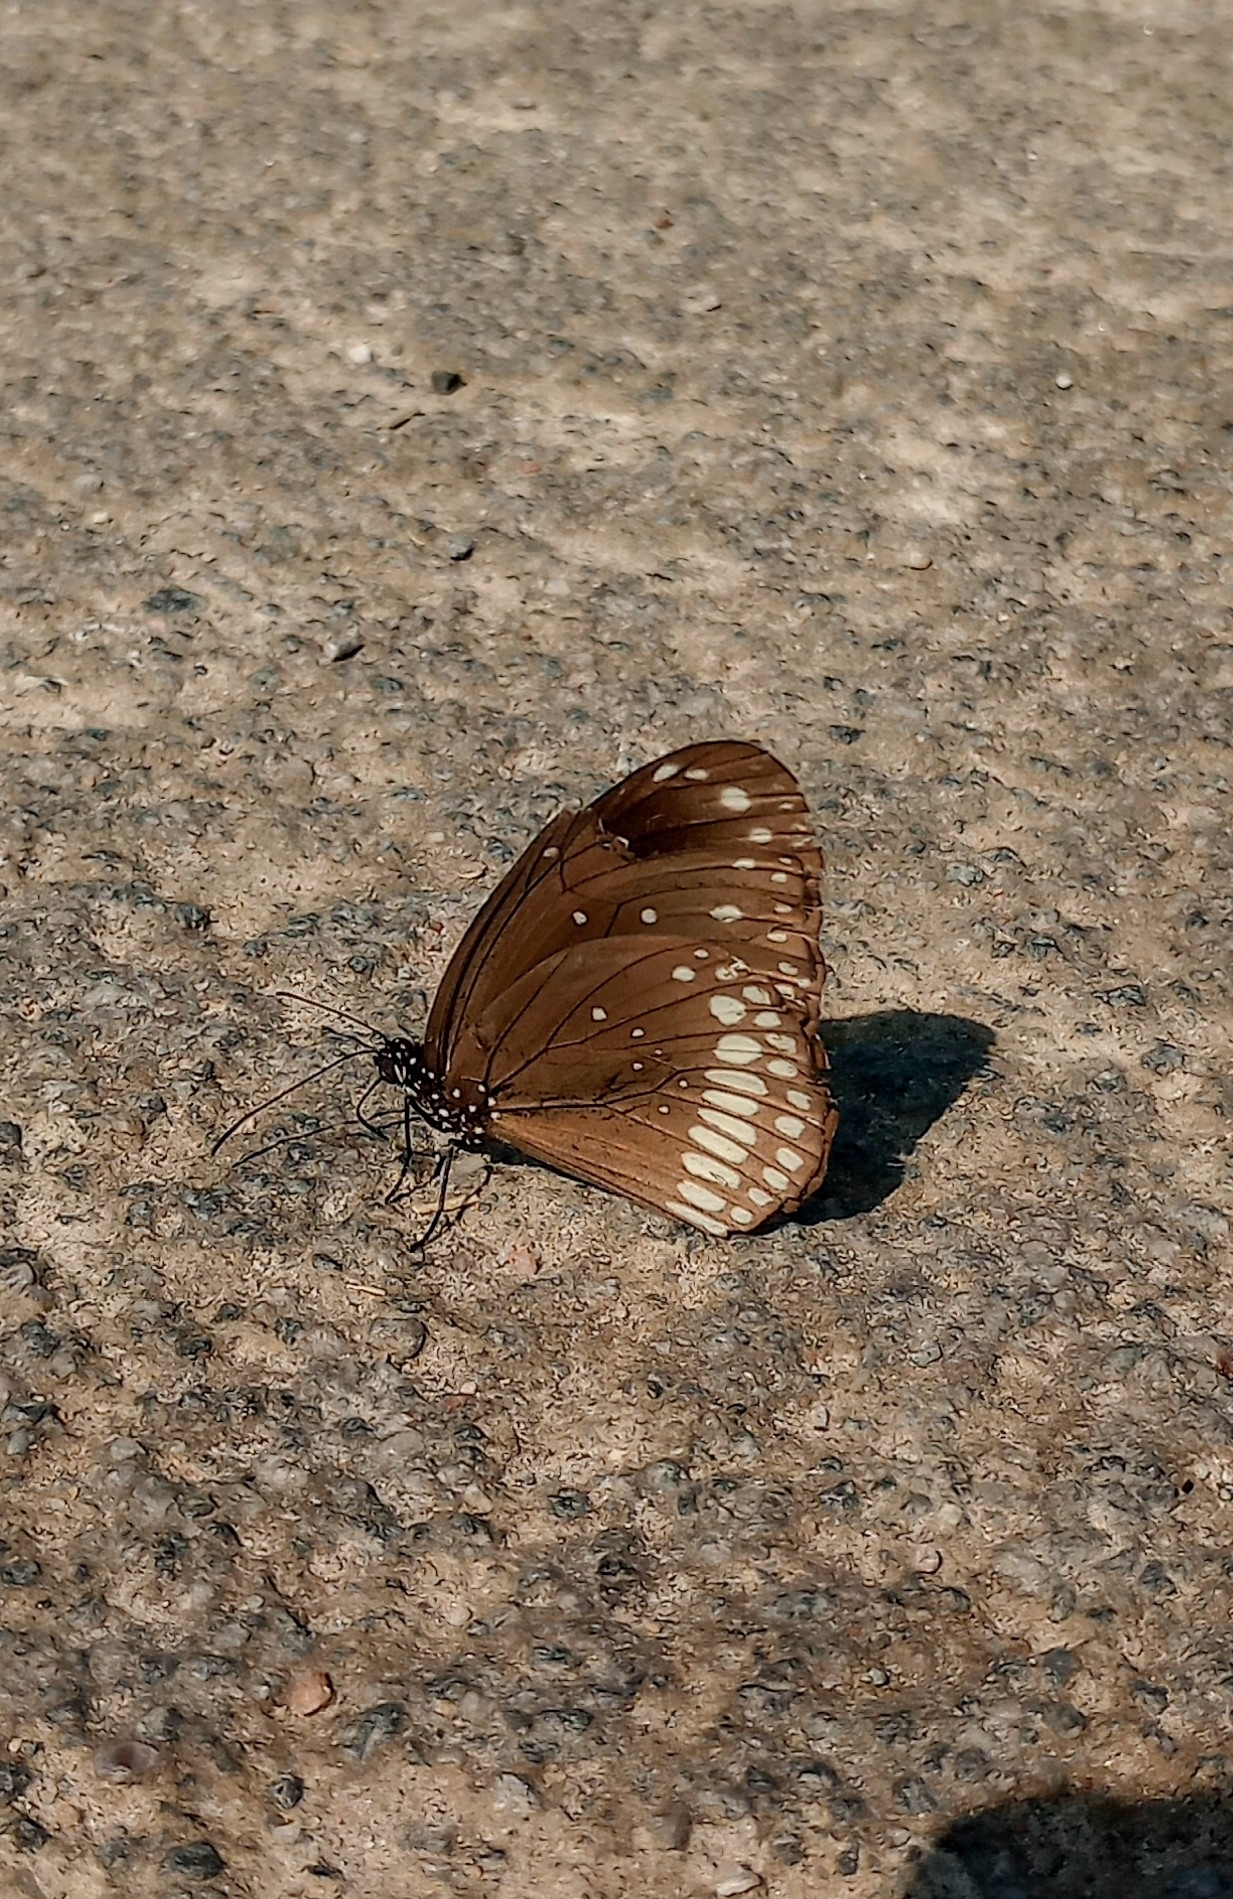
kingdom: Animalia
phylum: Arthropoda
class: Insecta
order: Lepidoptera
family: Nymphalidae
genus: Euploea
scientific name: Euploea core
